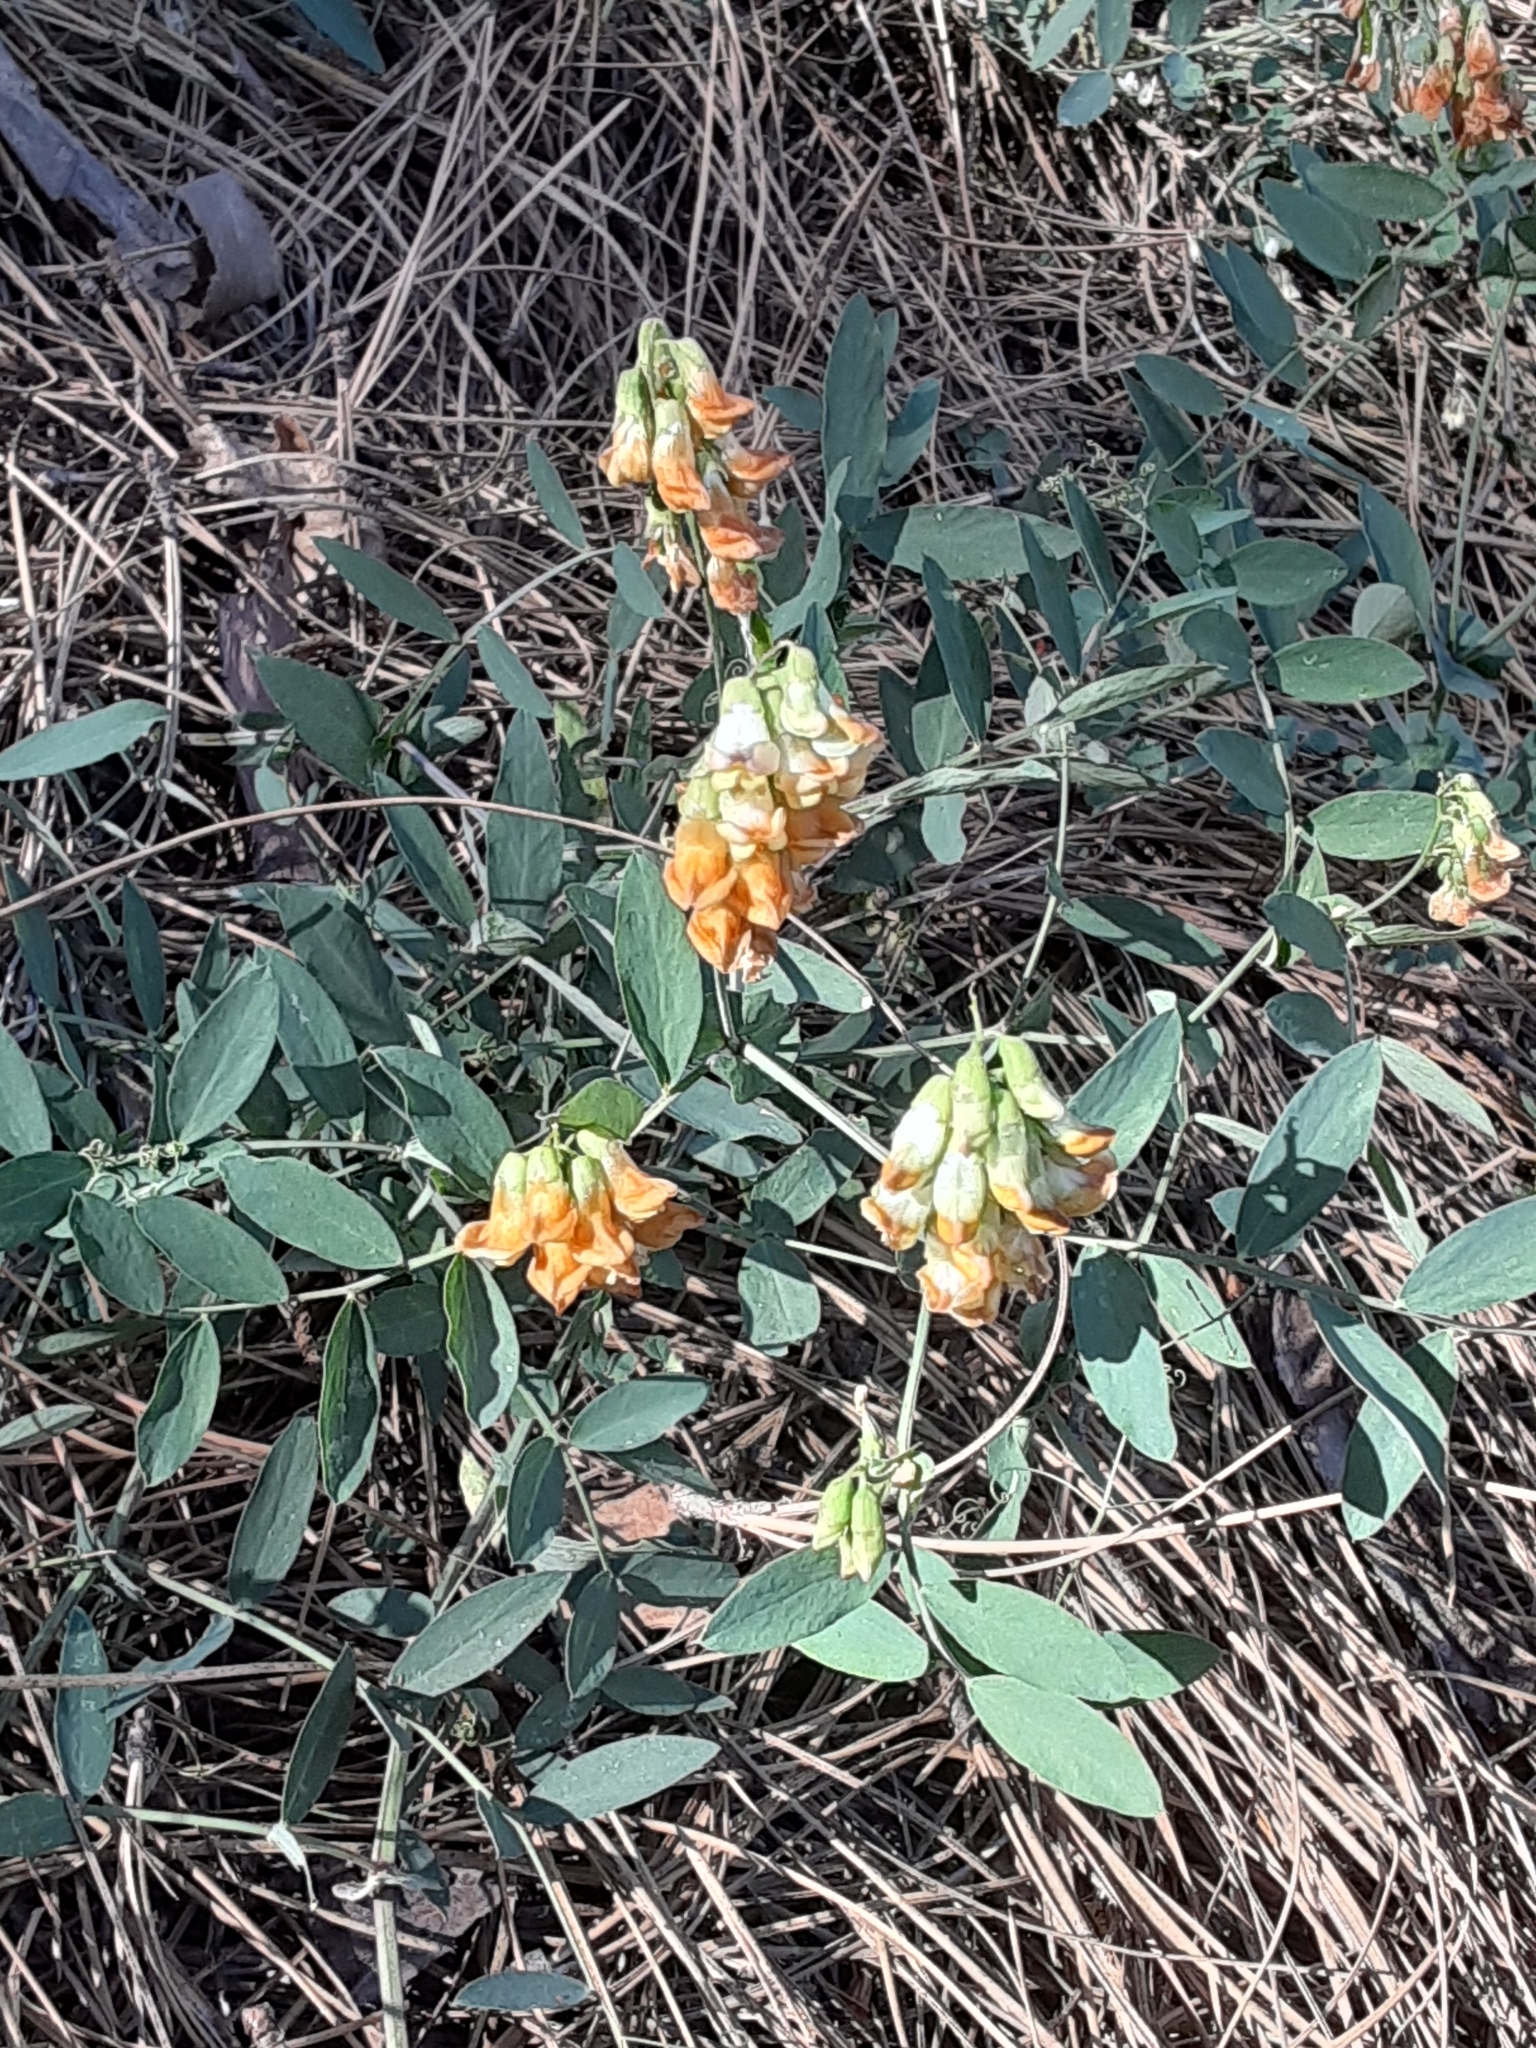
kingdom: Plantae
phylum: Tracheophyta
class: Magnoliopsida
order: Fabales
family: Fabaceae
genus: Lathyrus
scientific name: Lathyrus sulphureus
